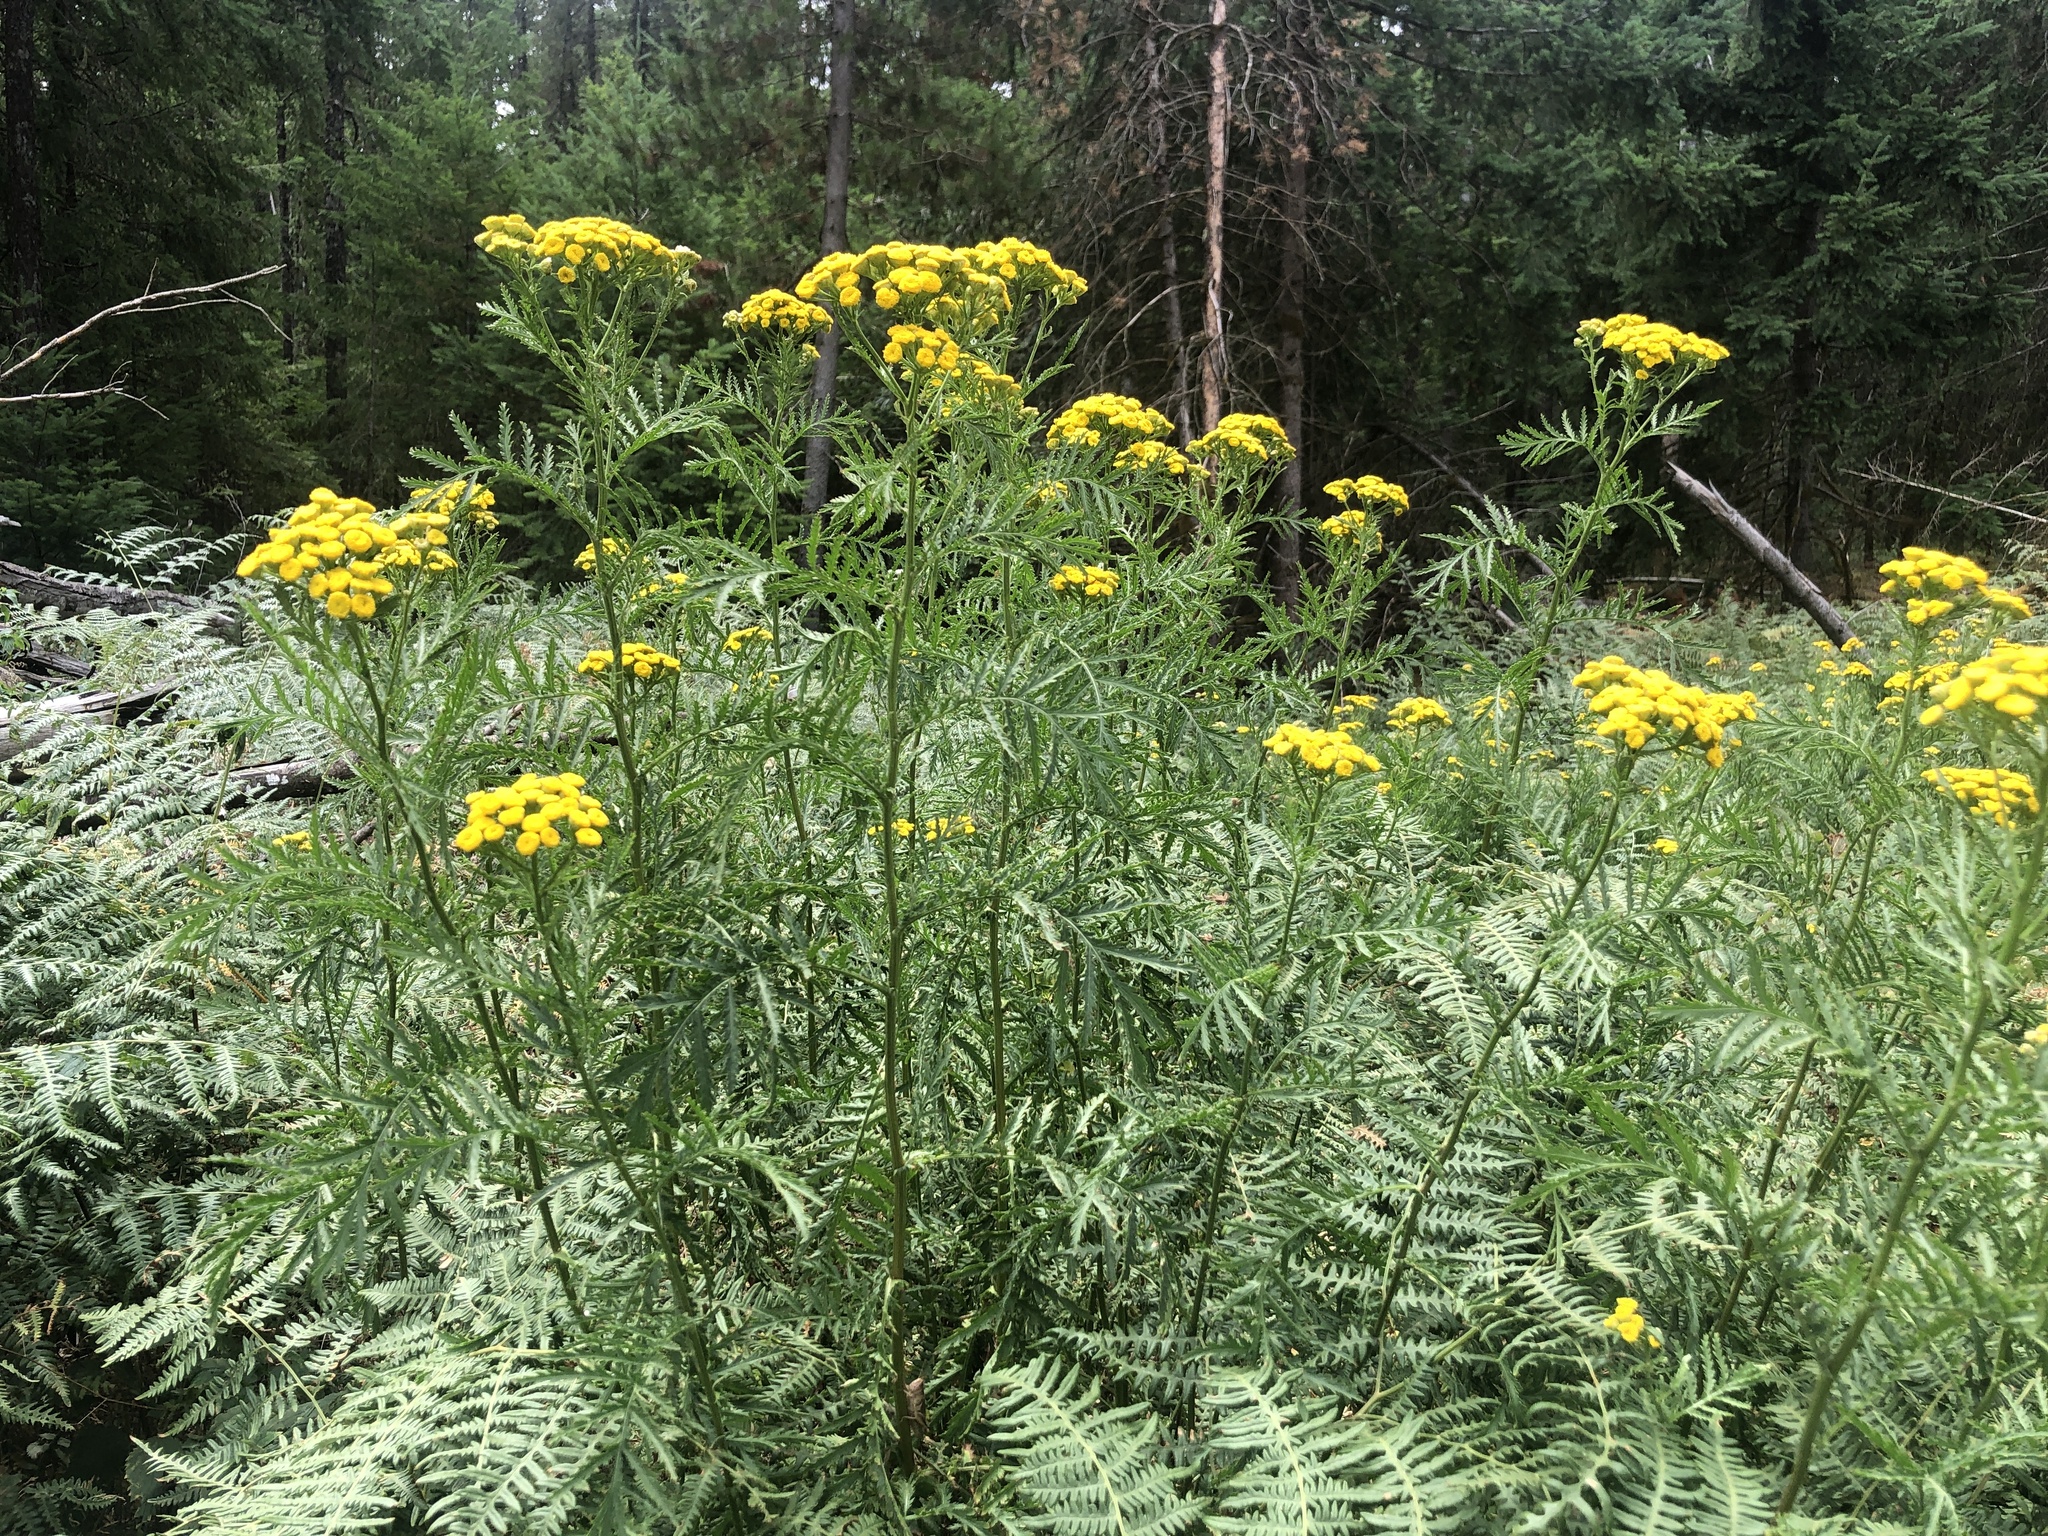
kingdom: Plantae
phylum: Tracheophyta
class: Magnoliopsida
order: Asterales
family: Asteraceae
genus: Tanacetum
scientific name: Tanacetum vulgare
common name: Common tansy
